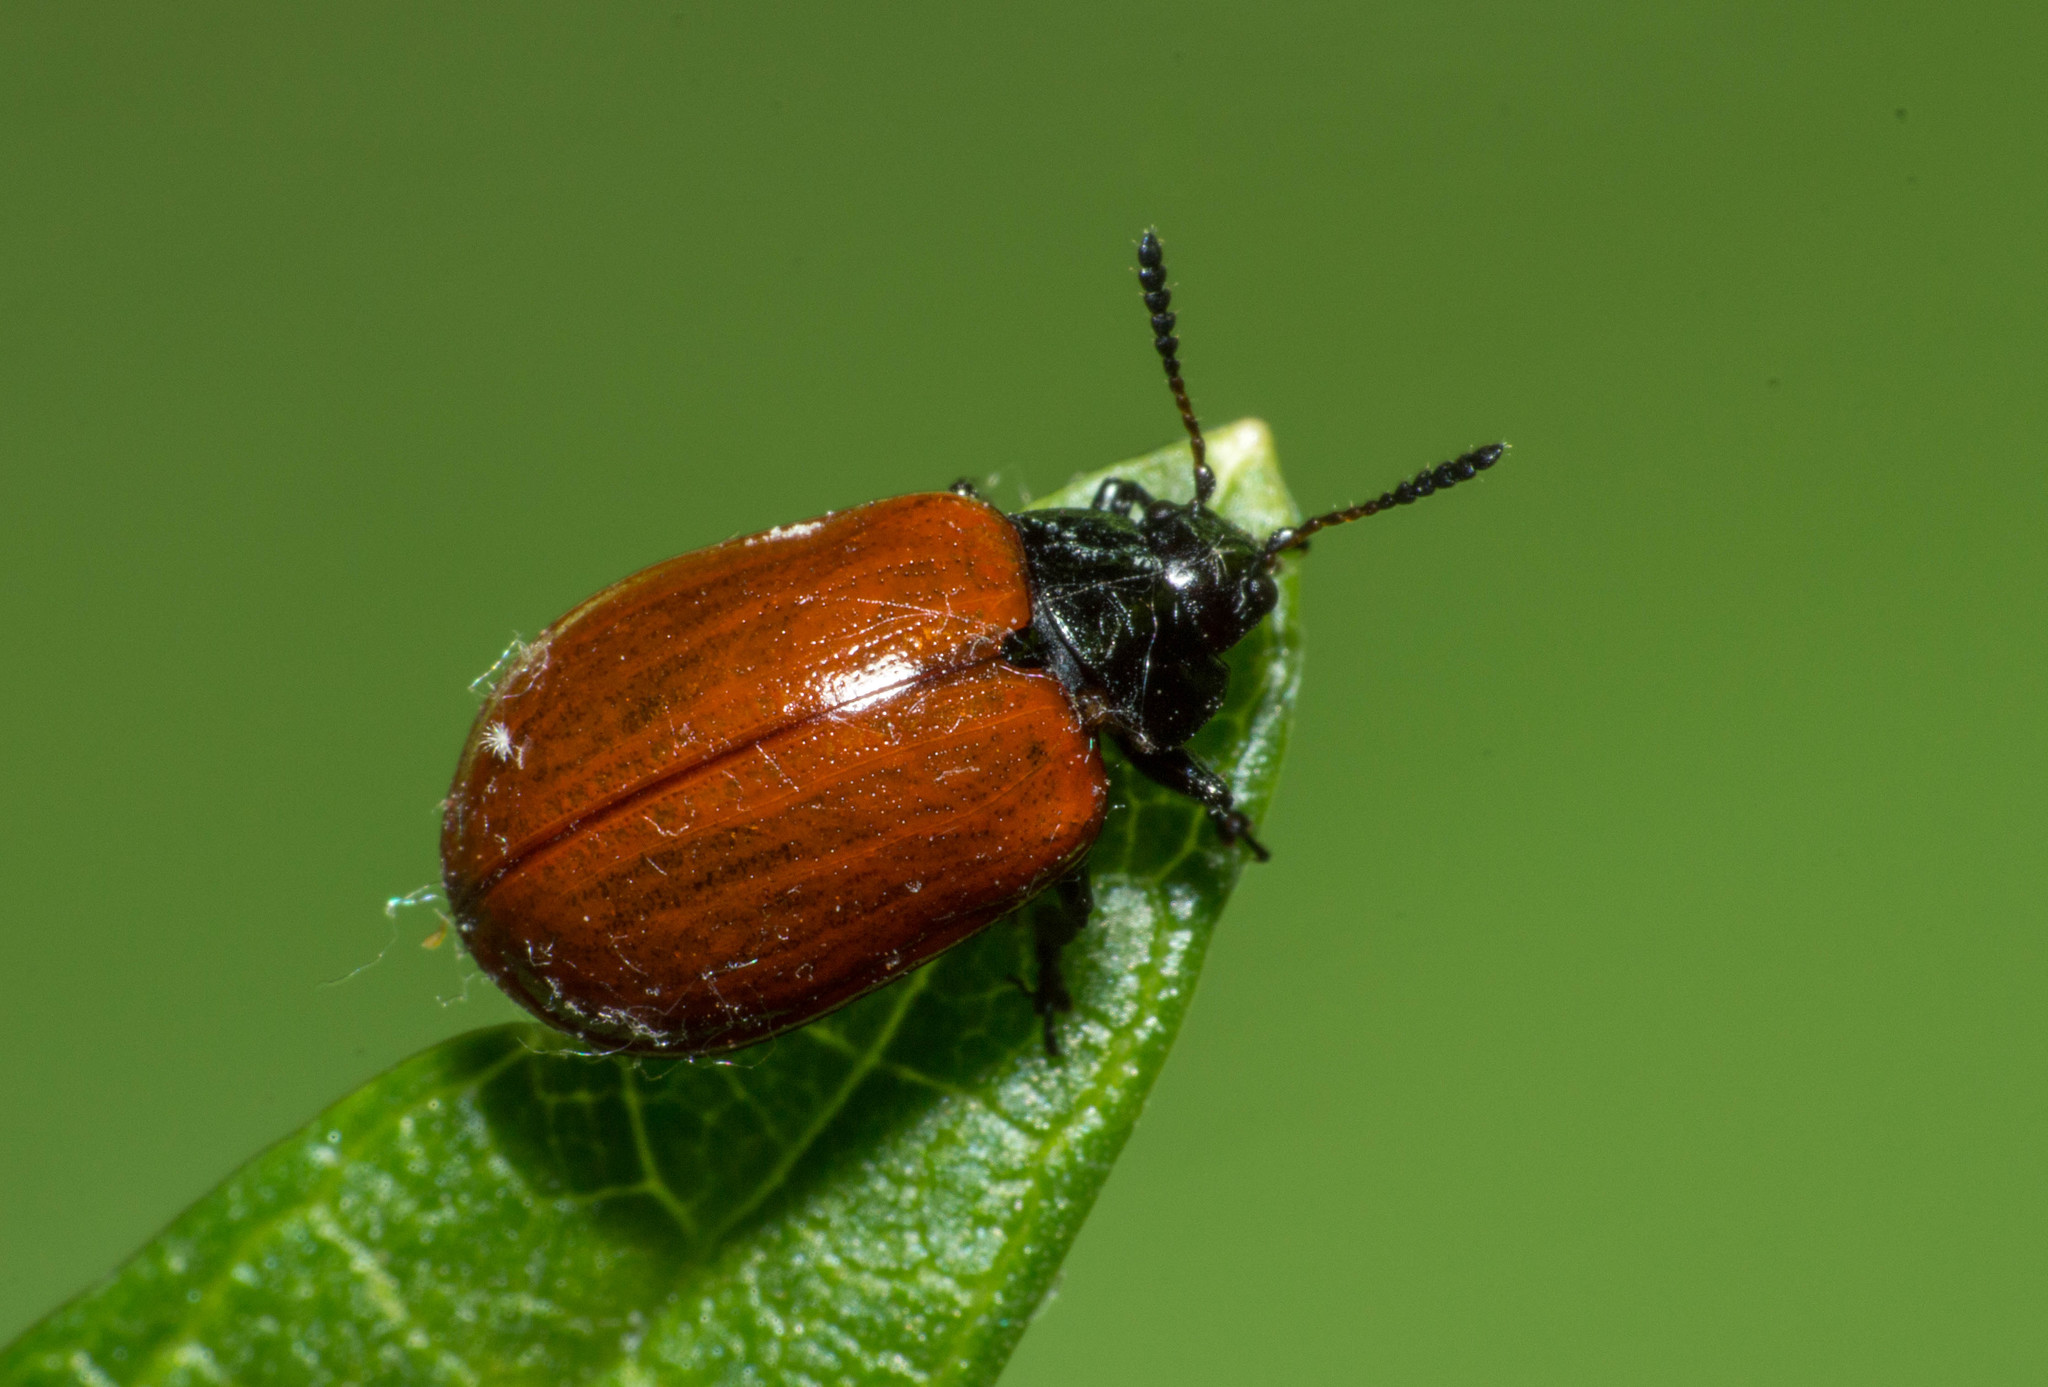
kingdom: Animalia
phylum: Arthropoda
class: Insecta
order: Coleoptera
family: Chrysomelidae
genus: Plagiodera
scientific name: Plagiodera
